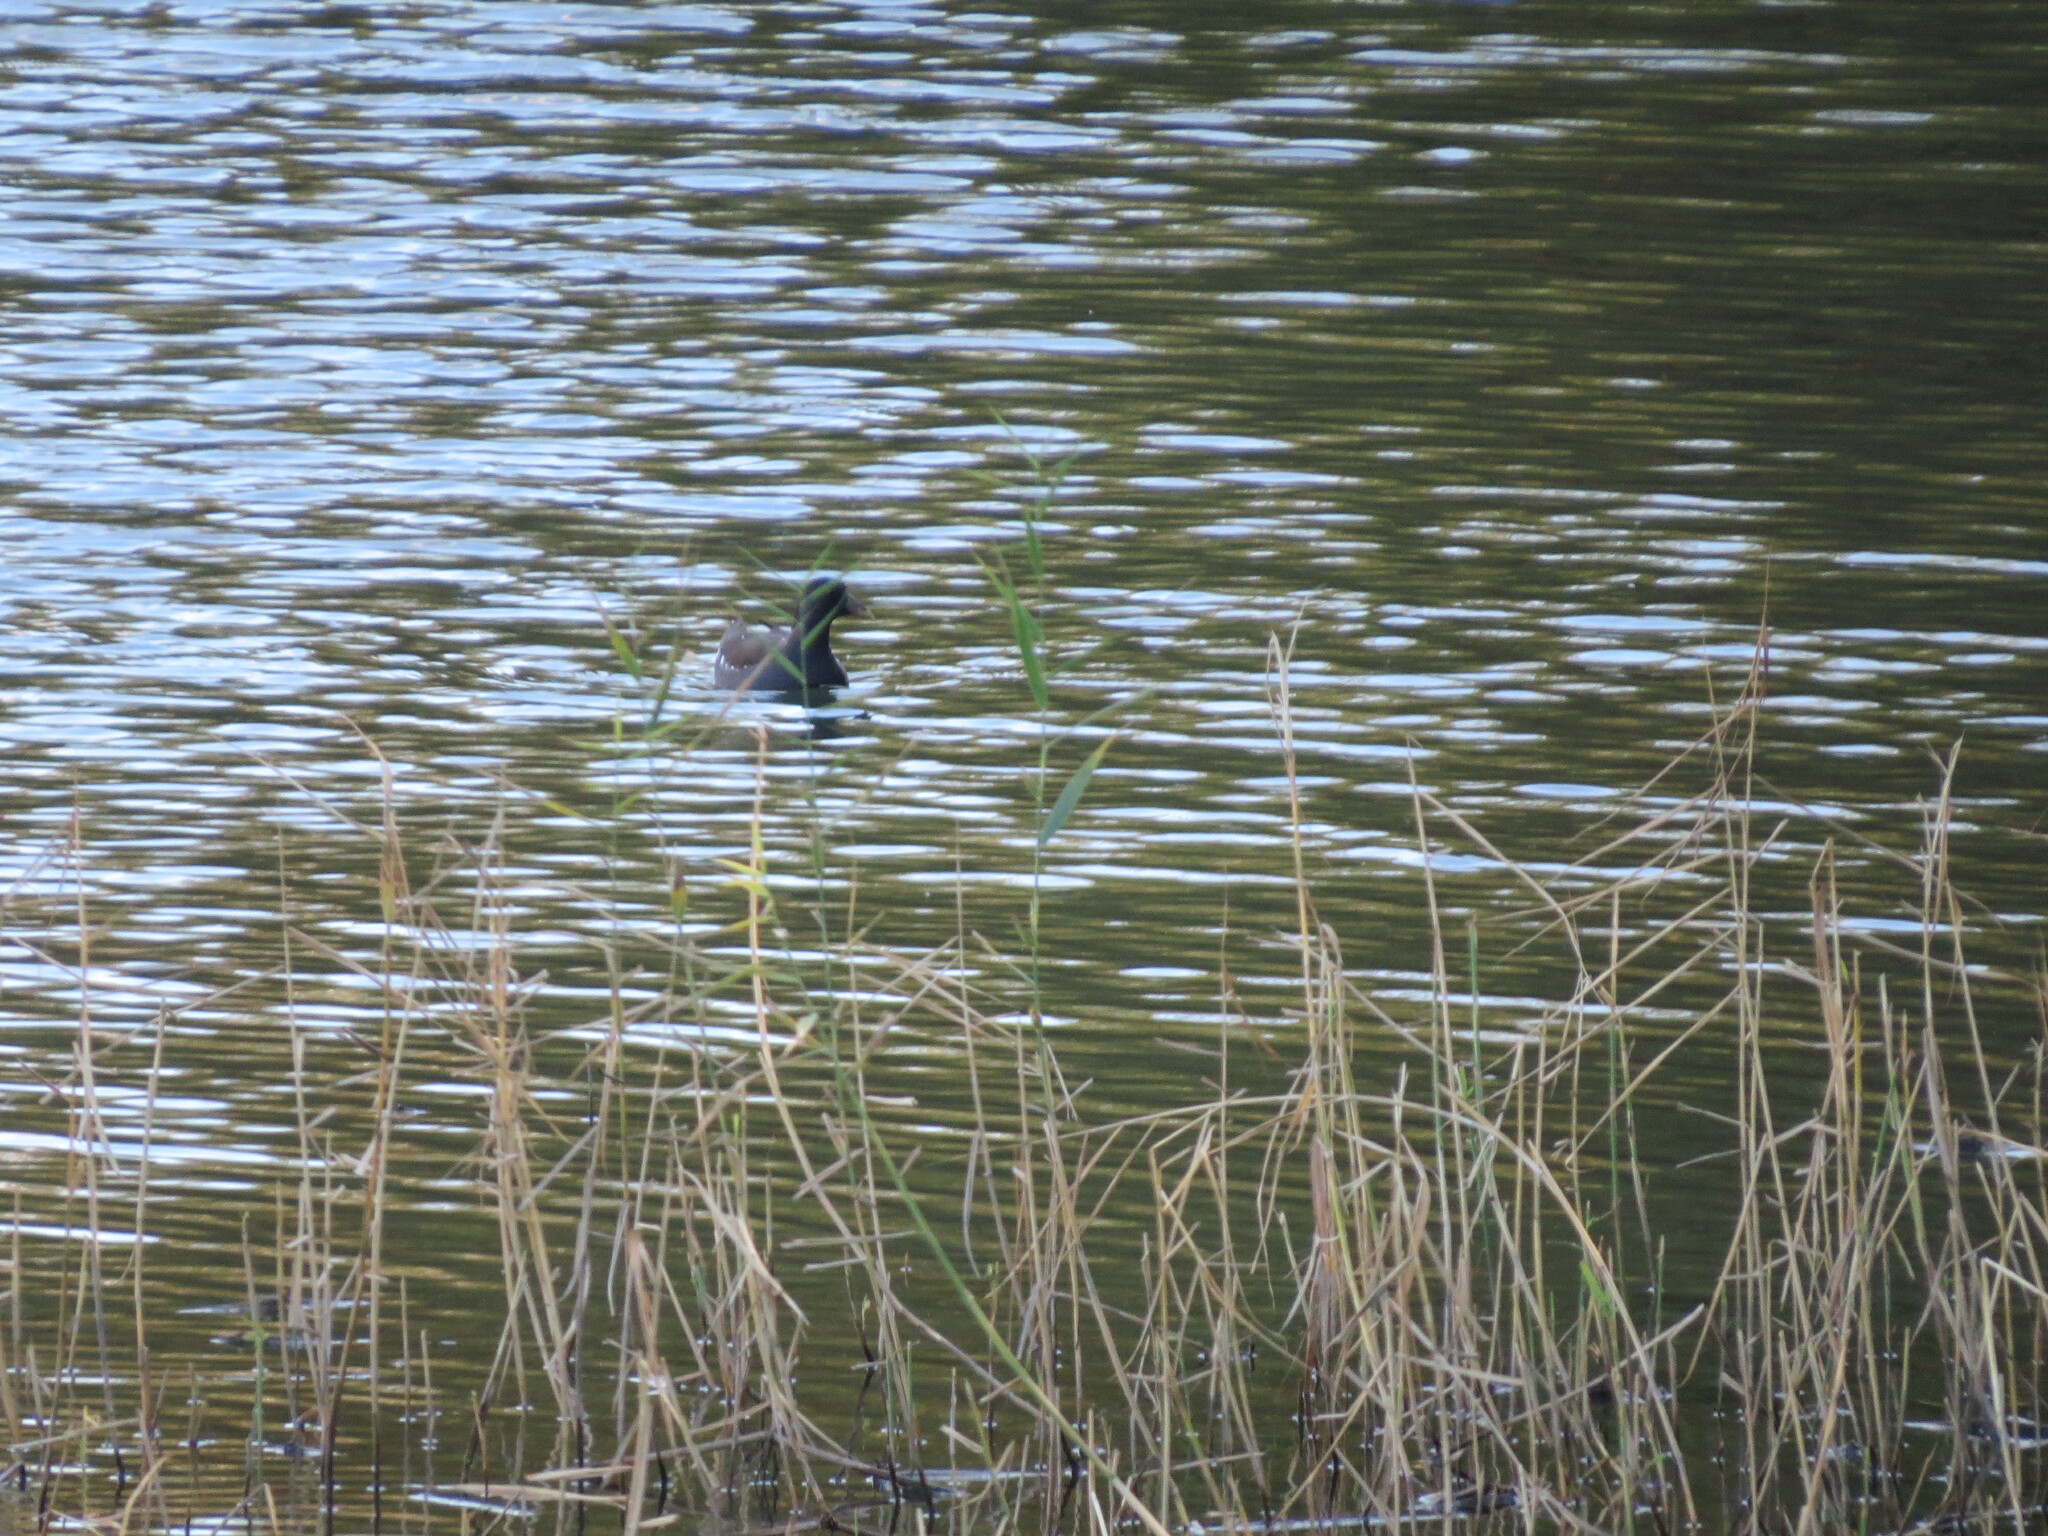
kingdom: Animalia
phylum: Chordata
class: Aves
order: Gruiformes
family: Rallidae
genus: Gallinula
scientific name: Gallinula chloropus
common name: Common moorhen
